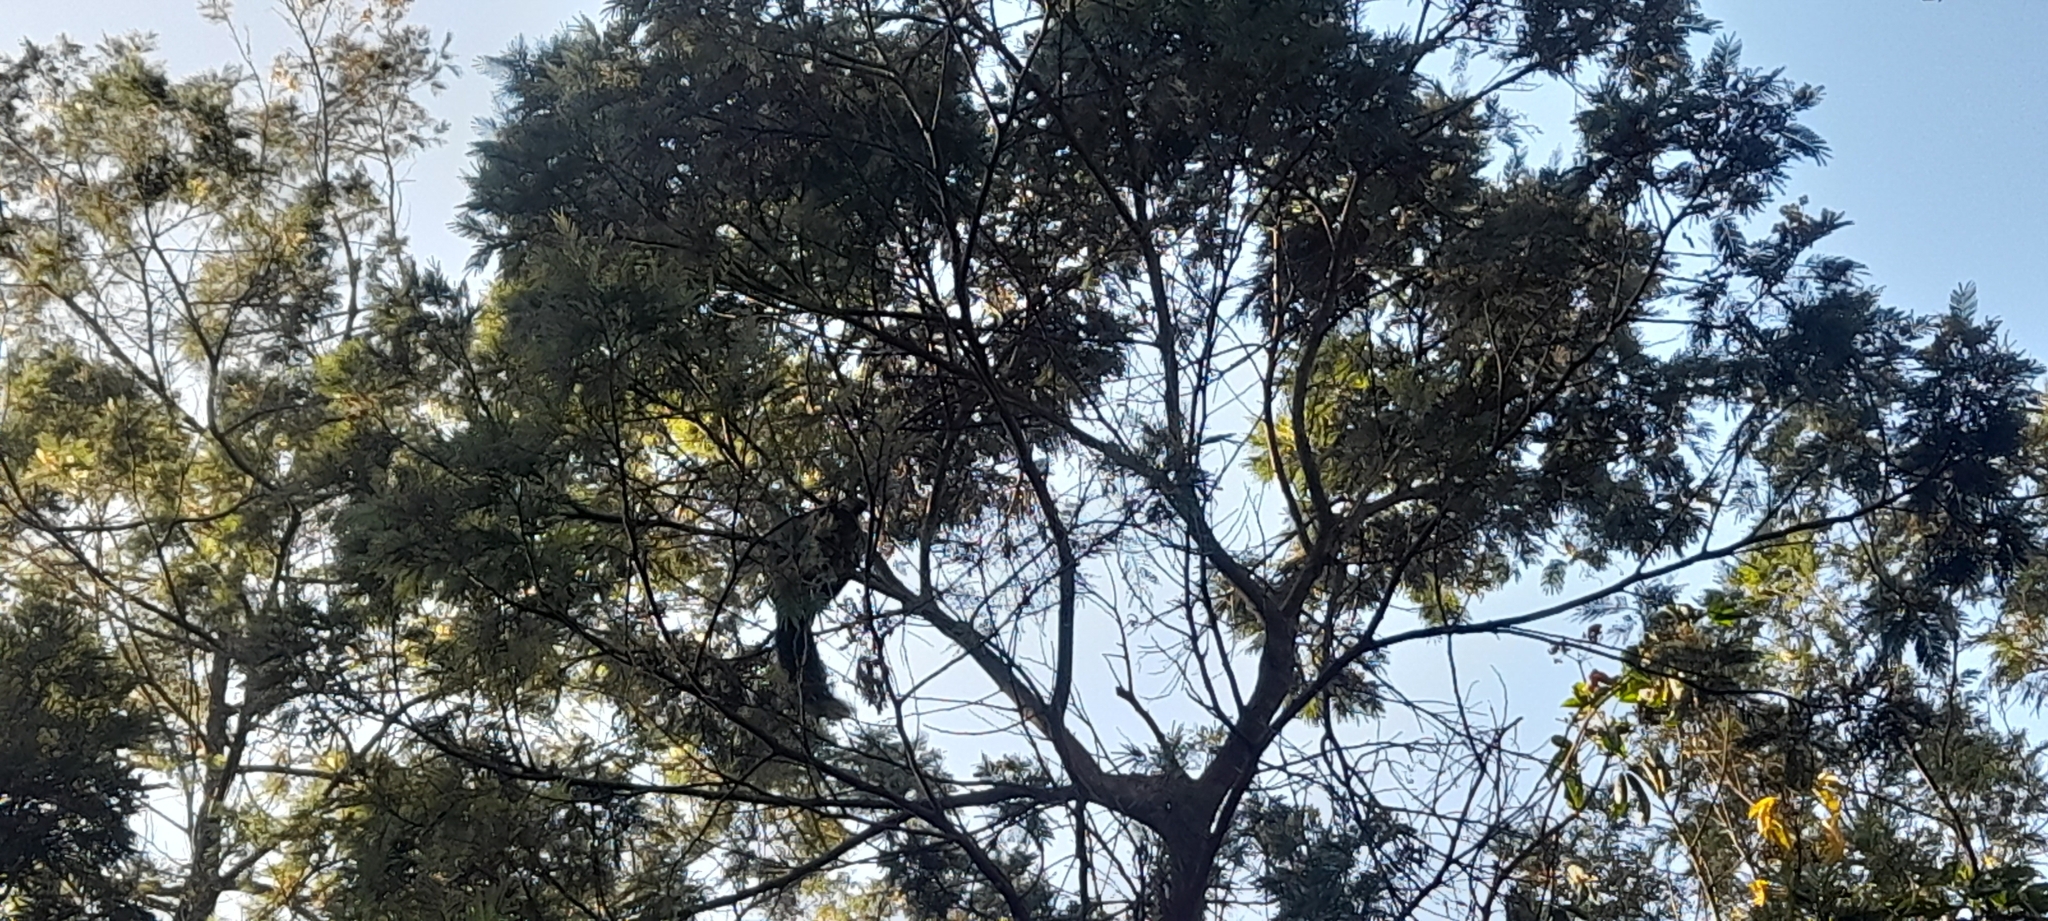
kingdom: Animalia
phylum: Chordata
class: Mammalia
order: Rodentia
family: Sciuridae
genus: Ratufa
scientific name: Ratufa indica
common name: Indian giant squirrel
